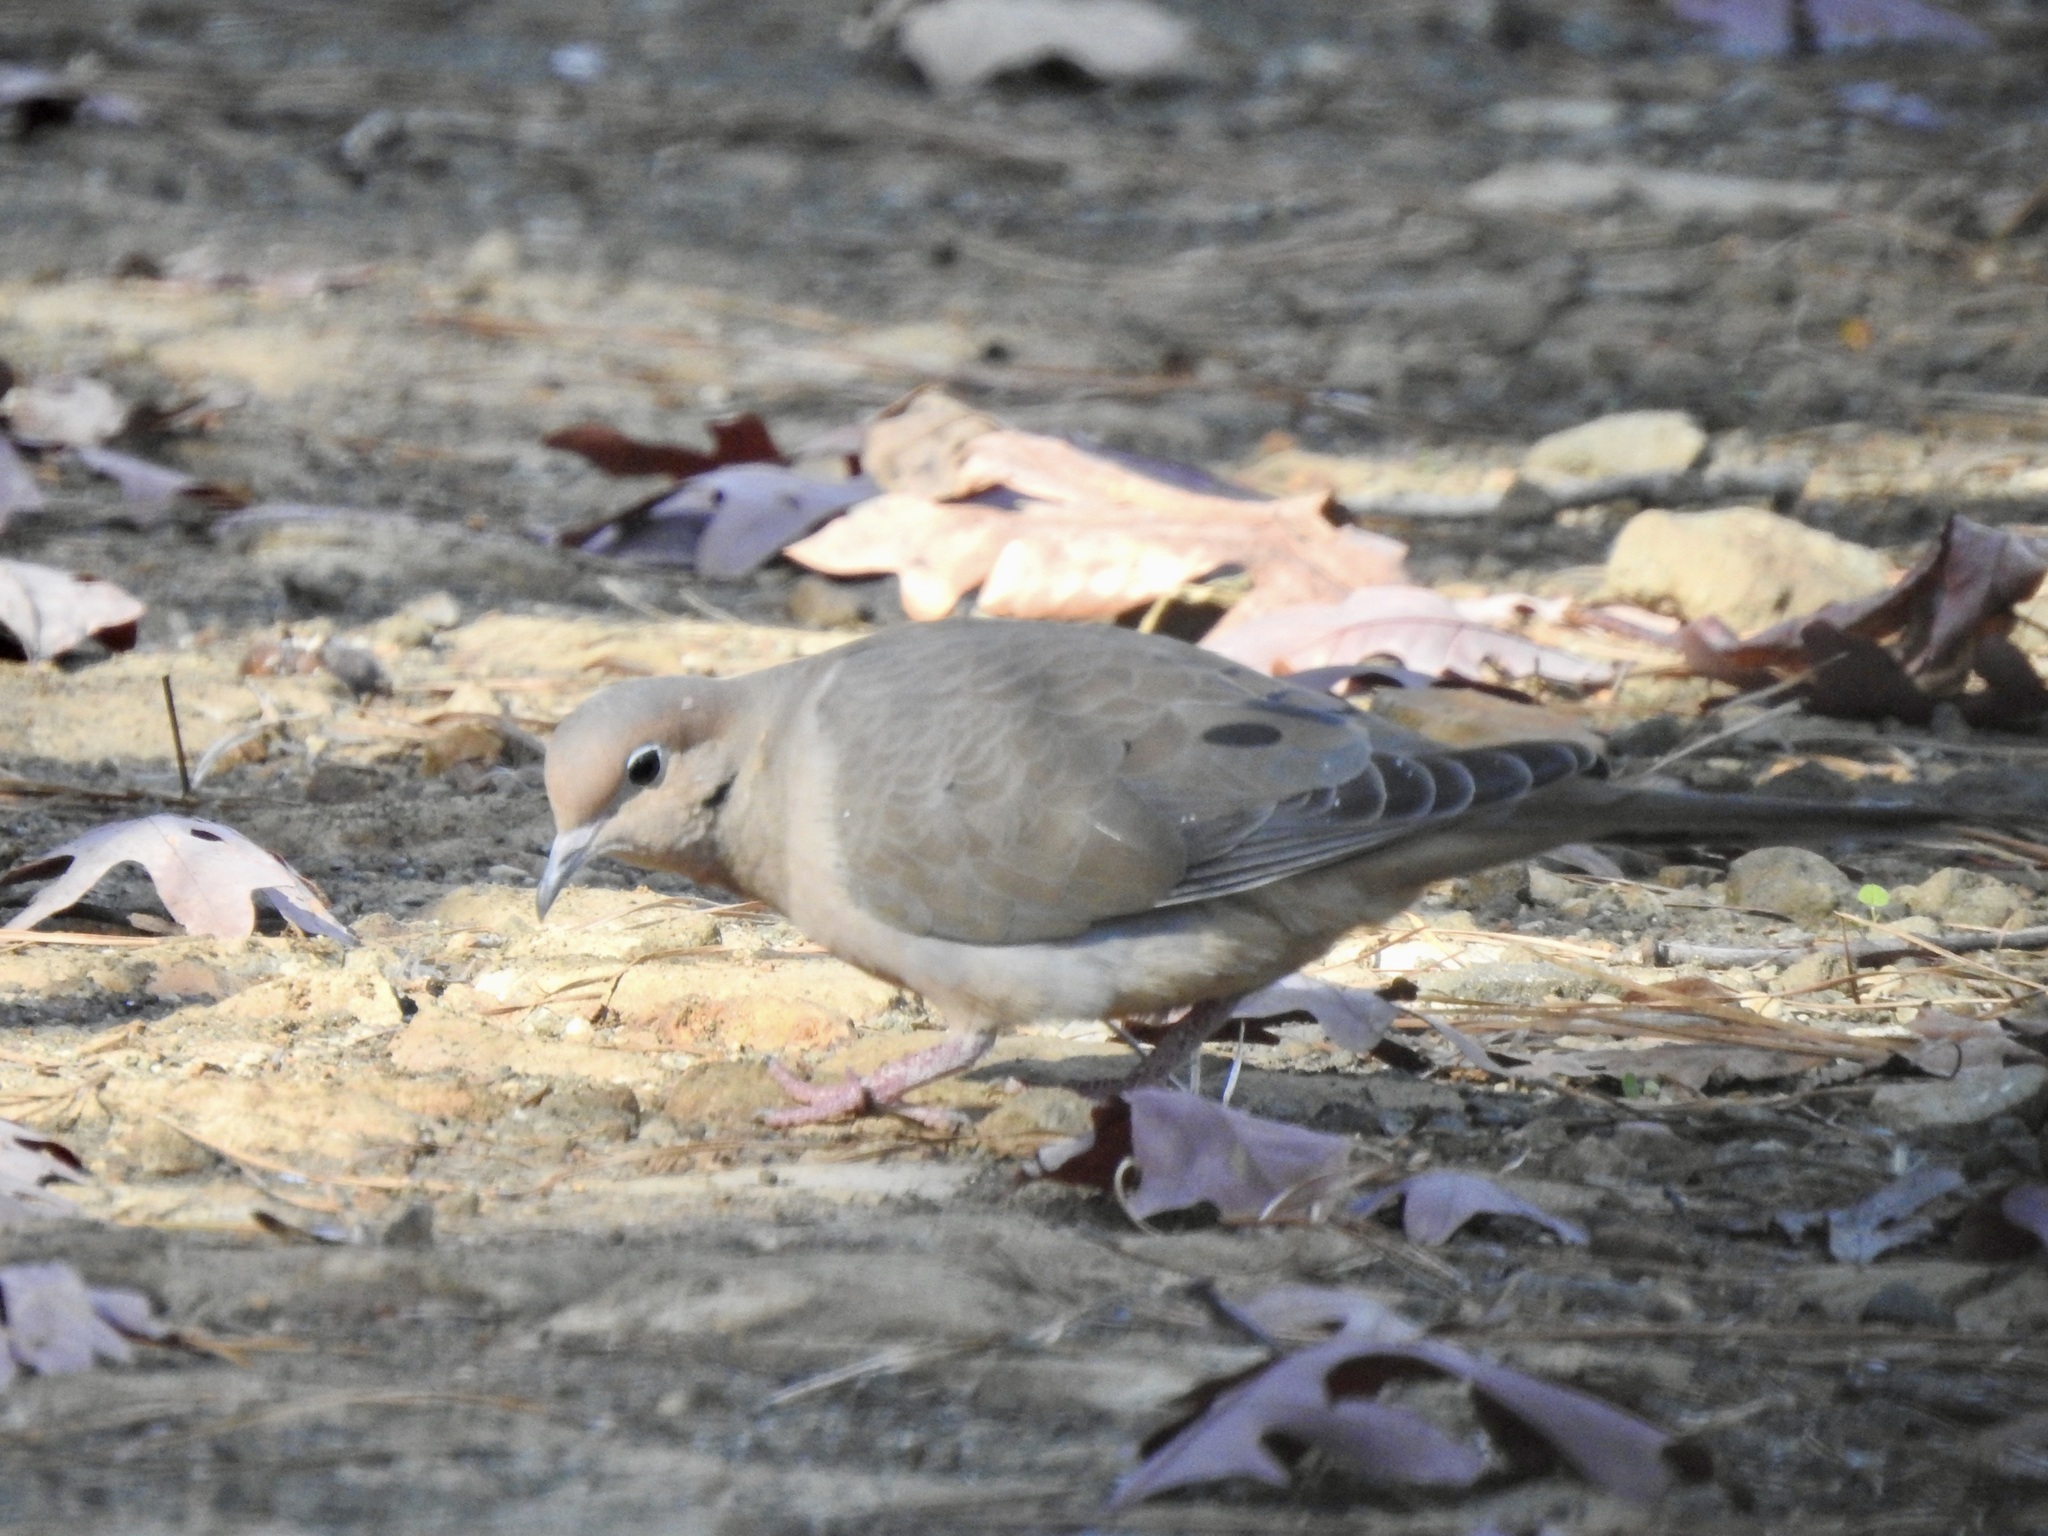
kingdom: Animalia
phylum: Chordata
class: Aves
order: Columbiformes
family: Columbidae
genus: Zenaida
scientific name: Zenaida macroura
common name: Mourning dove
